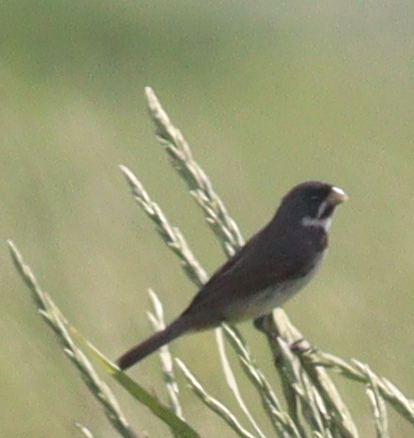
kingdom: Animalia
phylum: Chordata
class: Aves
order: Passeriformes
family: Thraupidae
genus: Sporophila
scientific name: Sporophila caerulescens
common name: Double-collared seedeater
